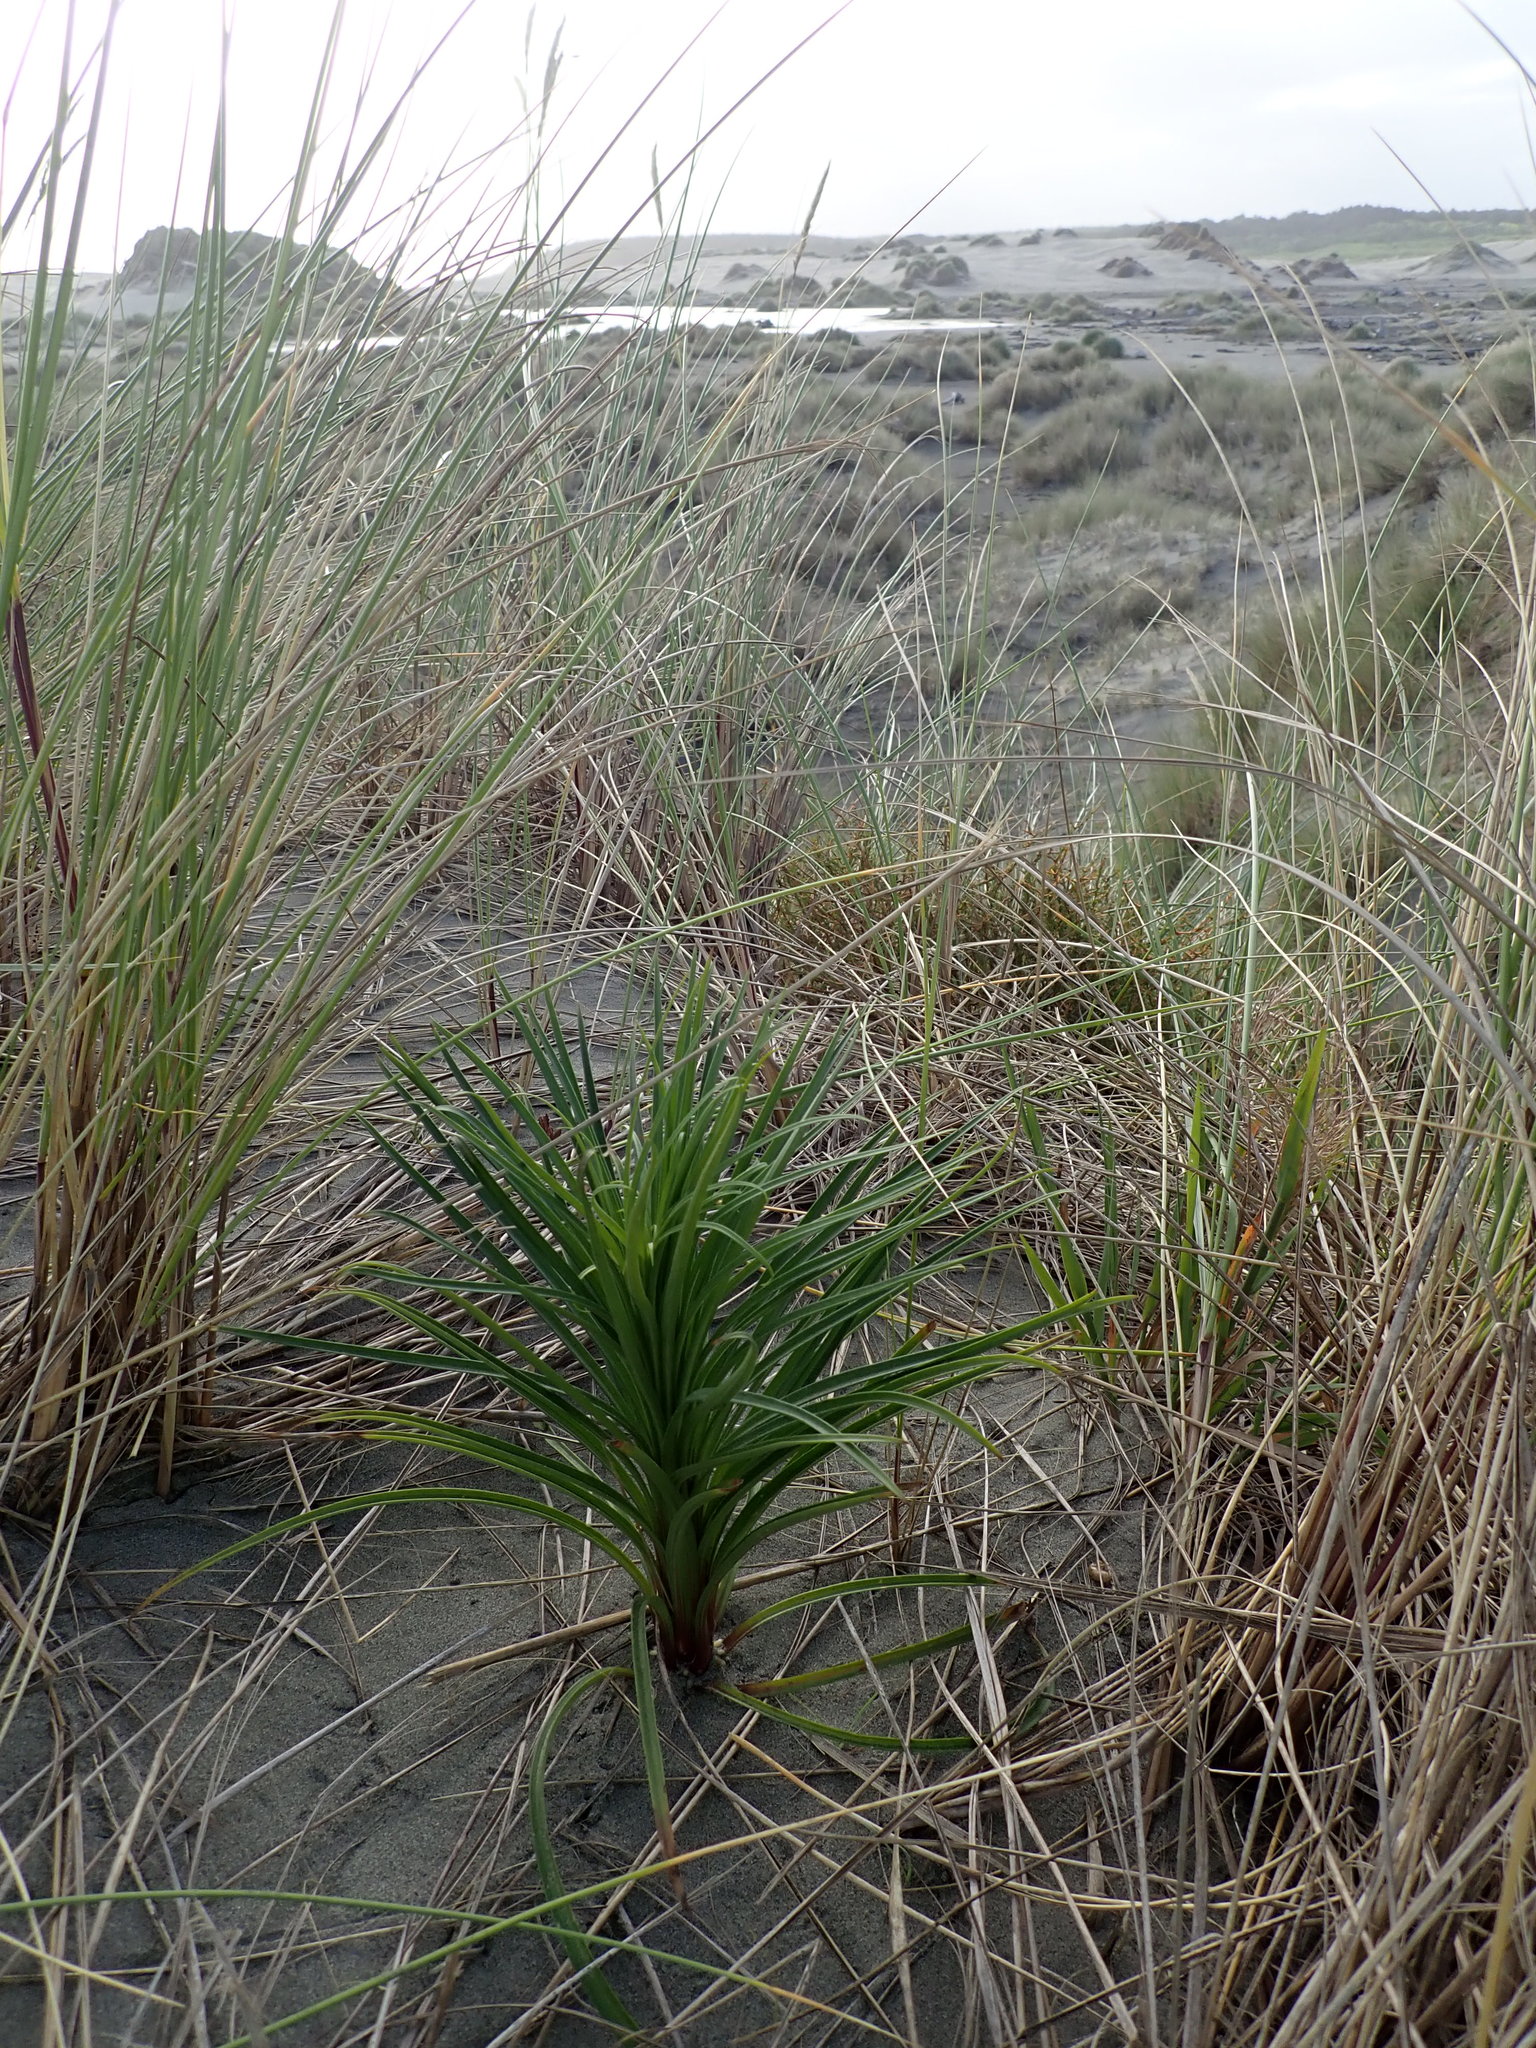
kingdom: Plantae
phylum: Tracheophyta
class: Liliopsida
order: Liliales
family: Liliaceae
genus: Lilium
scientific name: Lilium formosanum
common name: Formosa lily
